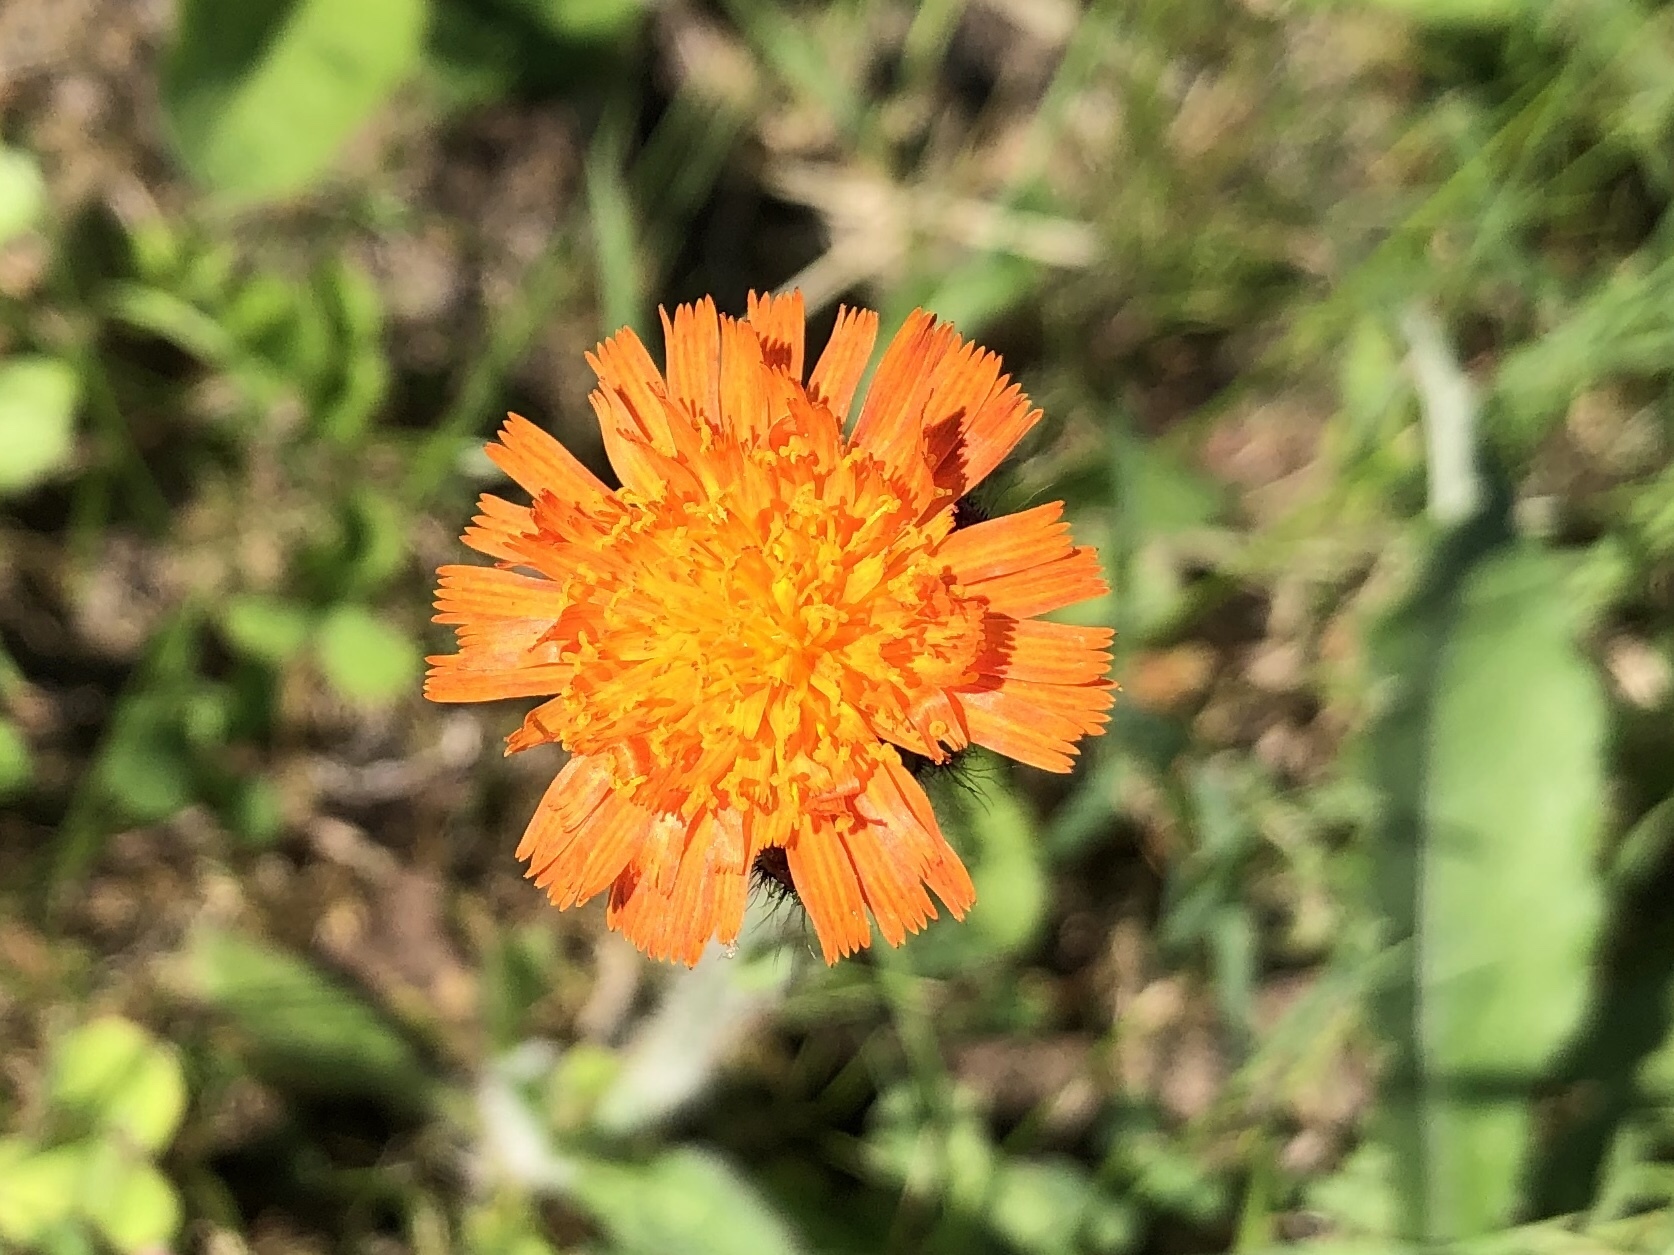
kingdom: Plantae
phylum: Tracheophyta
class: Magnoliopsida
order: Asterales
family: Asteraceae
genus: Pilosella
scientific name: Pilosella aurantiaca
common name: Fox-and-cubs
